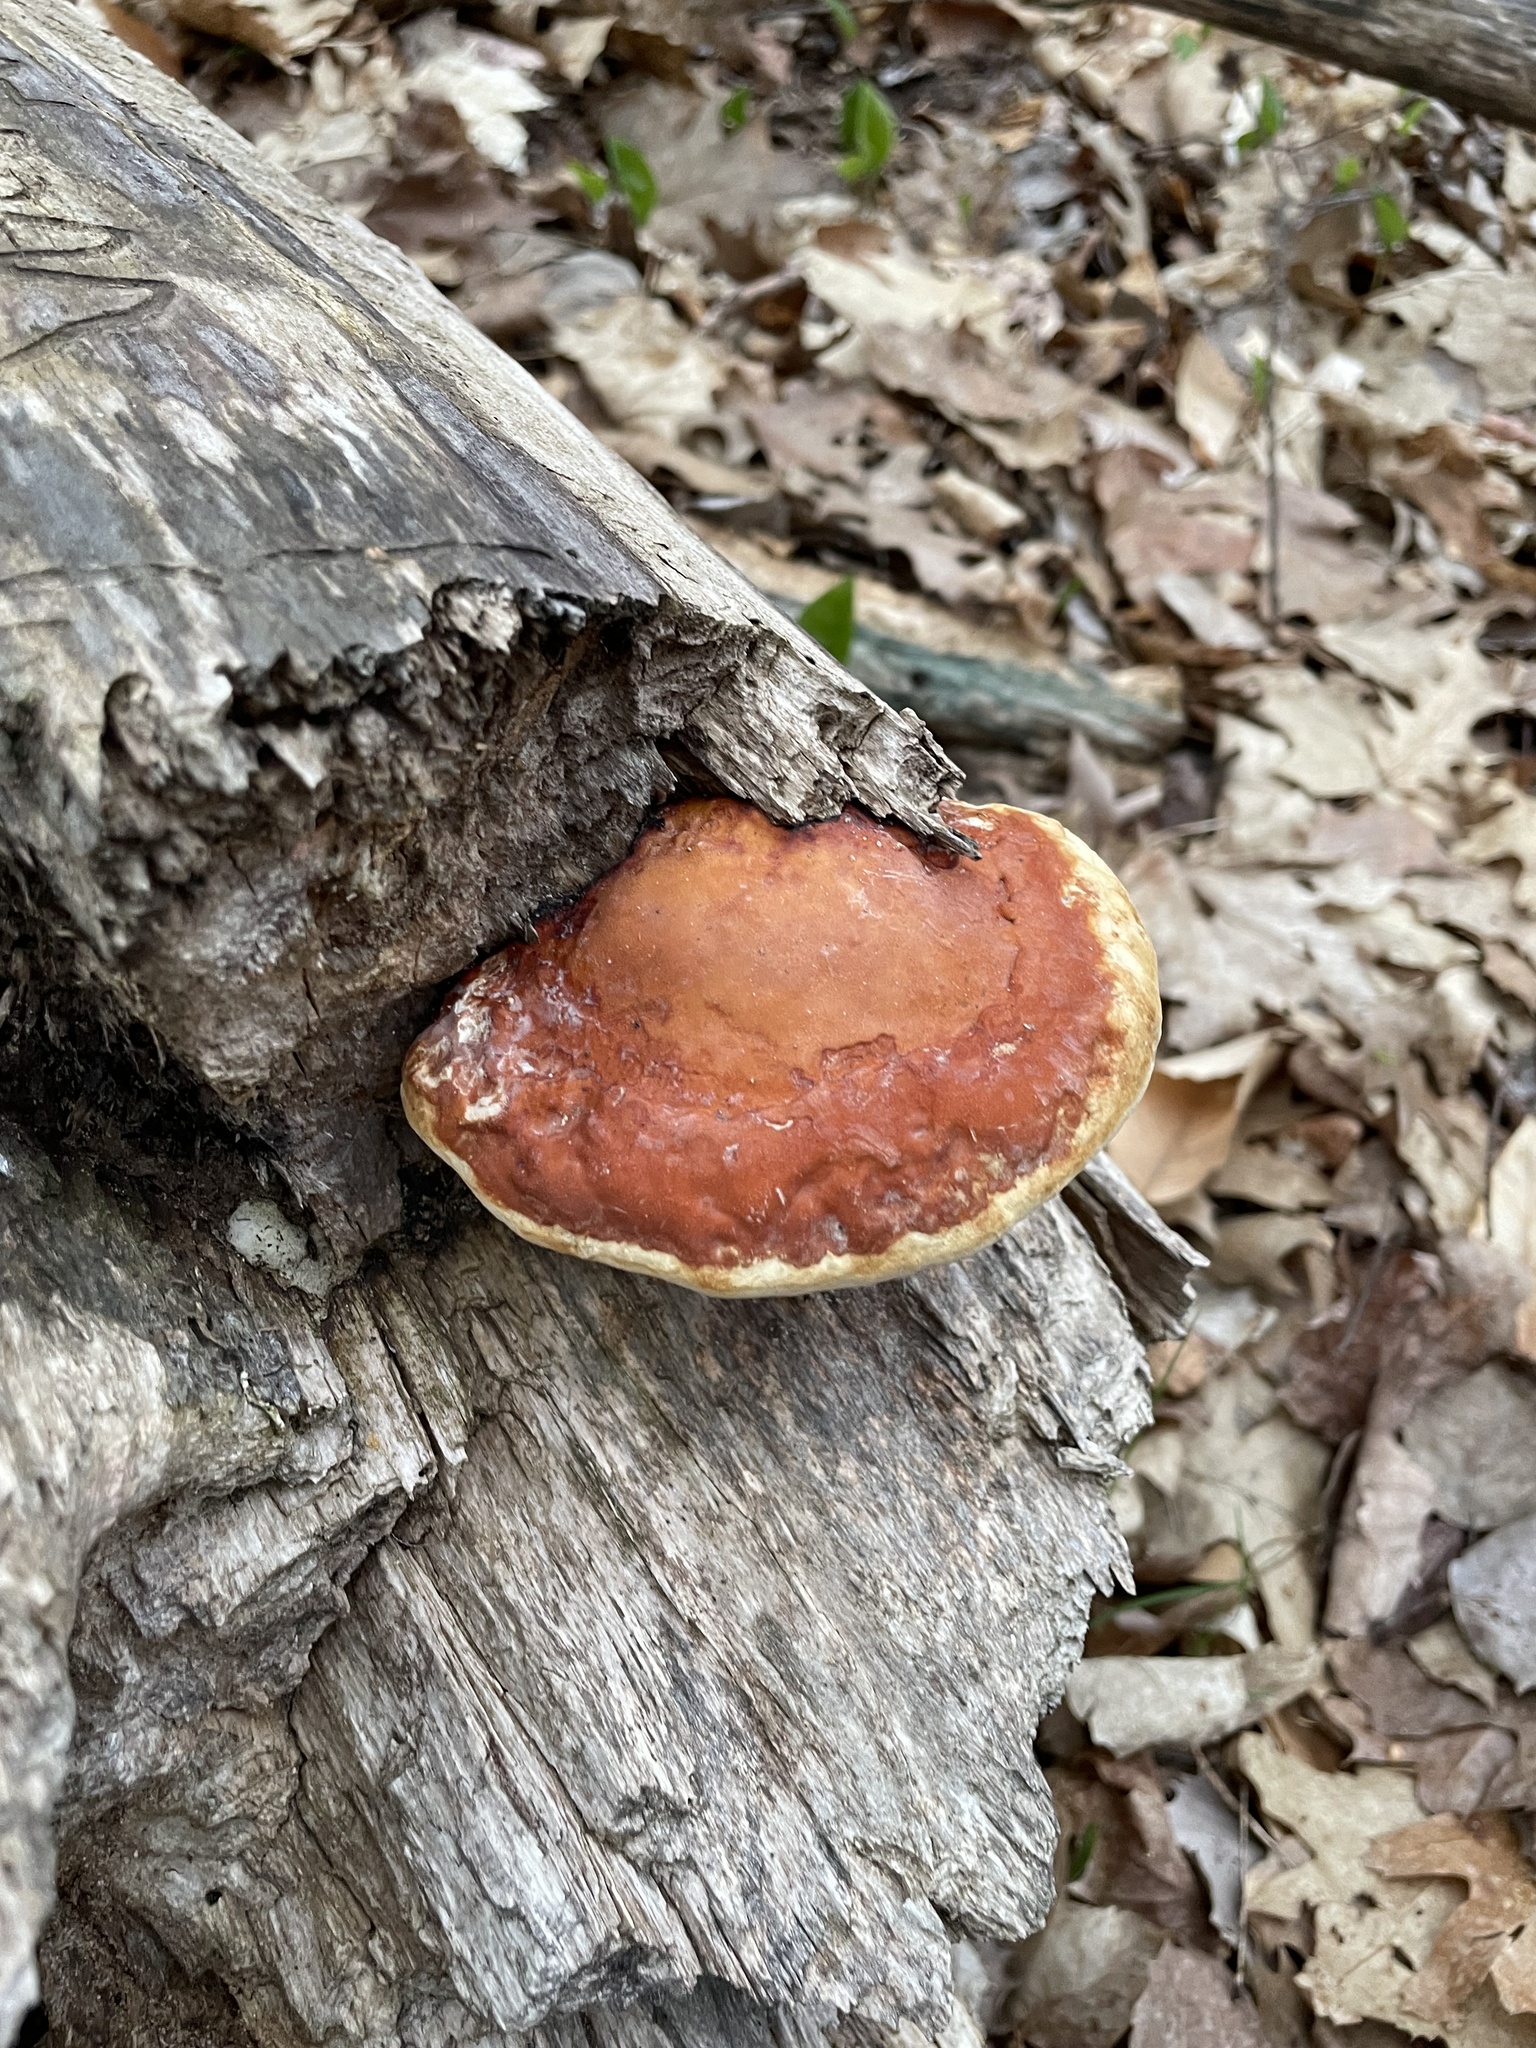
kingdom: Fungi
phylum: Basidiomycota
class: Agaricomycetes
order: Polyporales
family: Fomitopsidaceae
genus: Fomitopsis
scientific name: Fomitopsis mounceae
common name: Northern red belt
